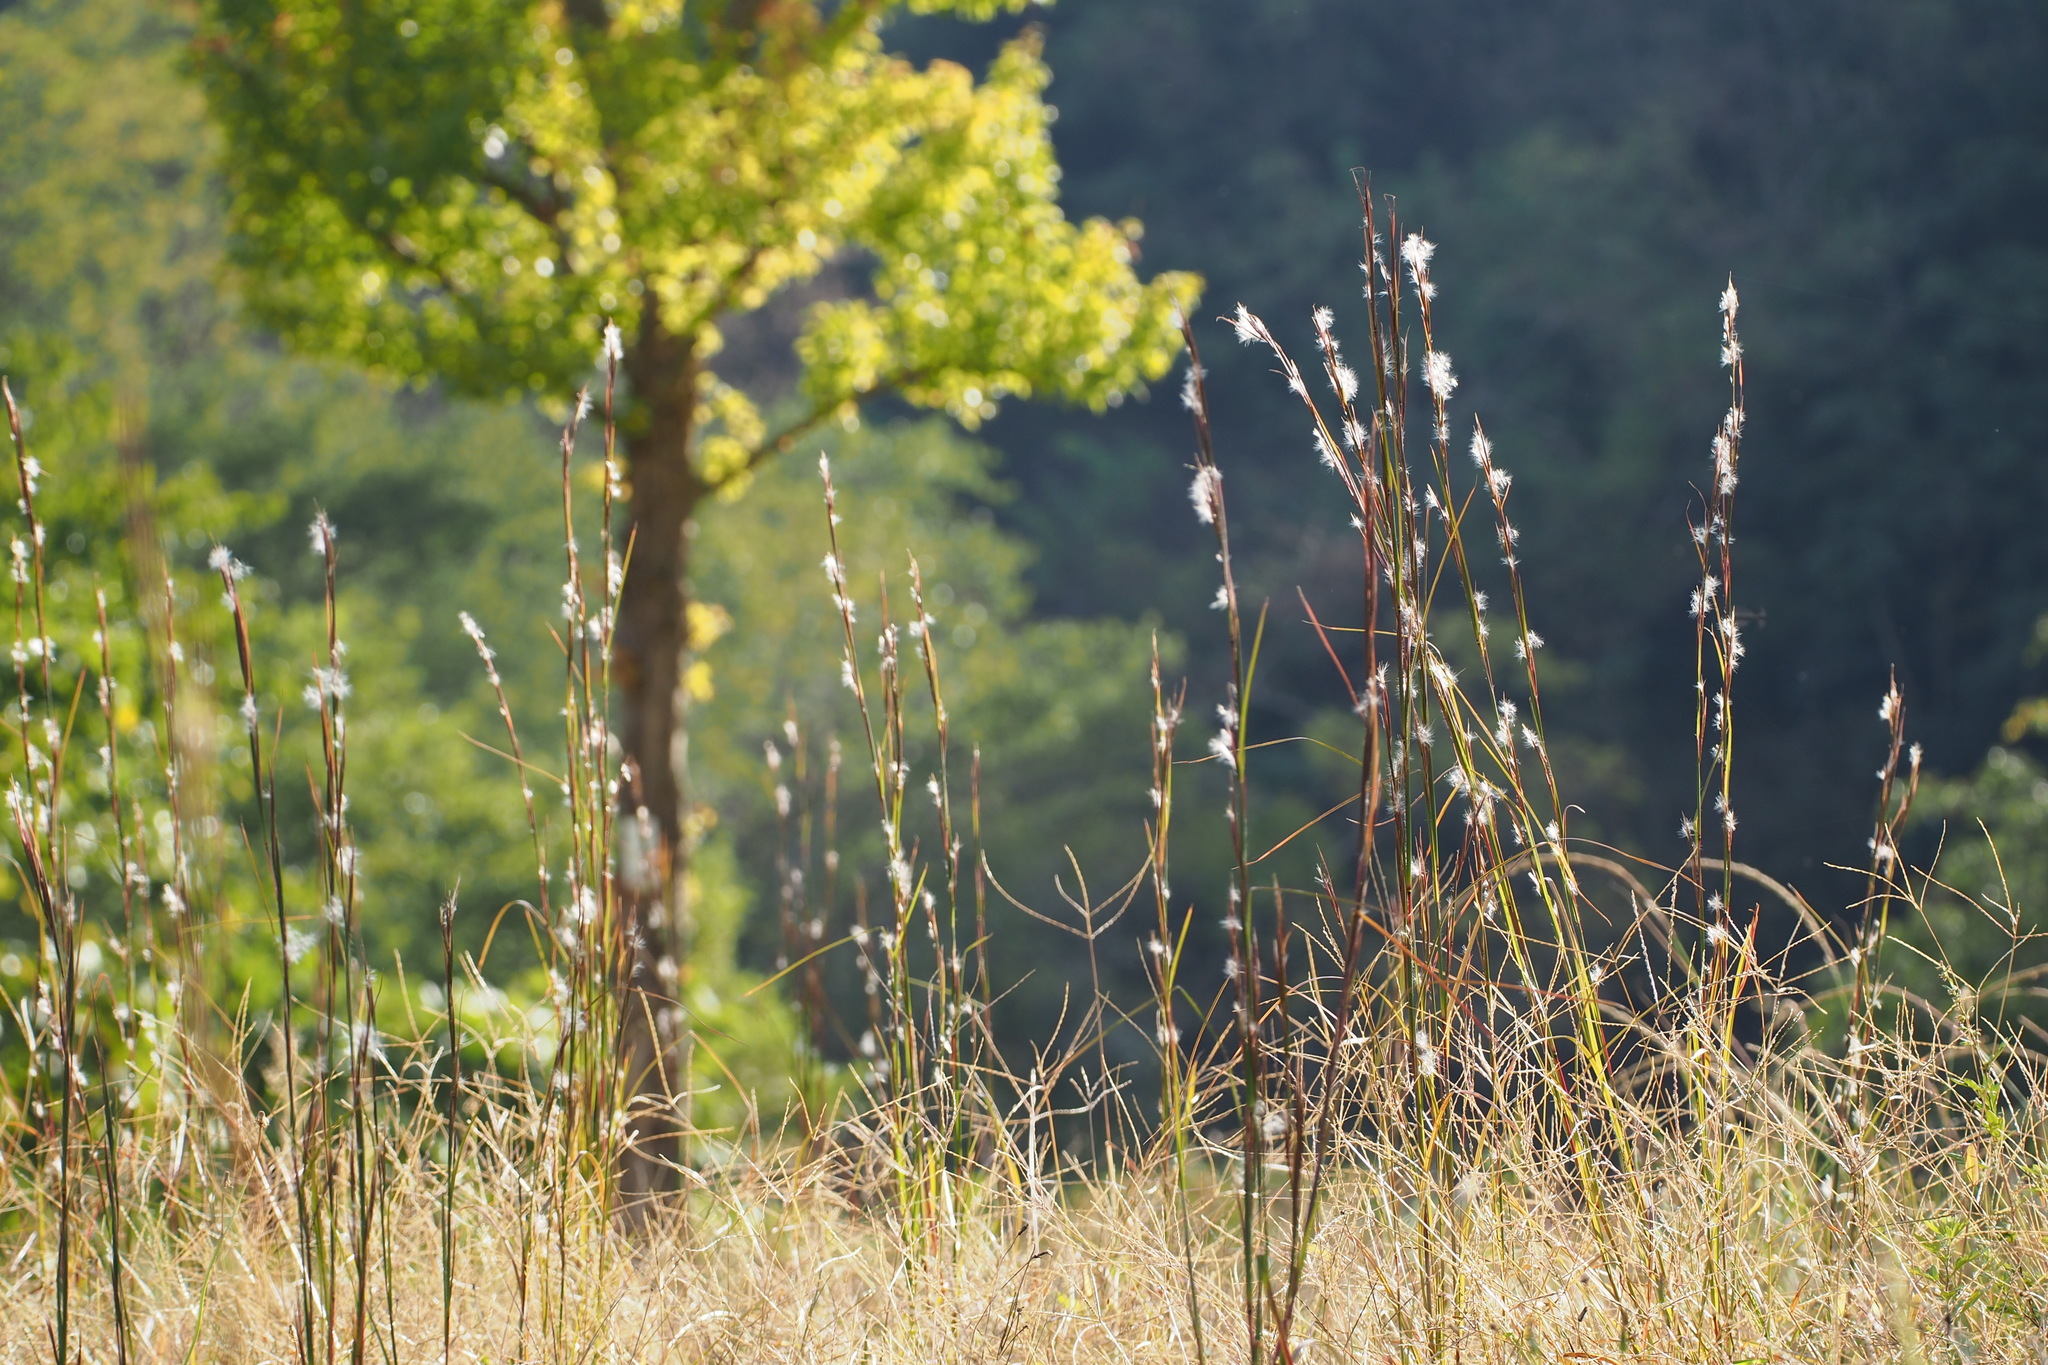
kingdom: Plantae
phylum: Tracheophyta
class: Liliopsida
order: Poales
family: Poaceae
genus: Andropogon
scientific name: Andropogon virginicus
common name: Broomsedge bluestem
